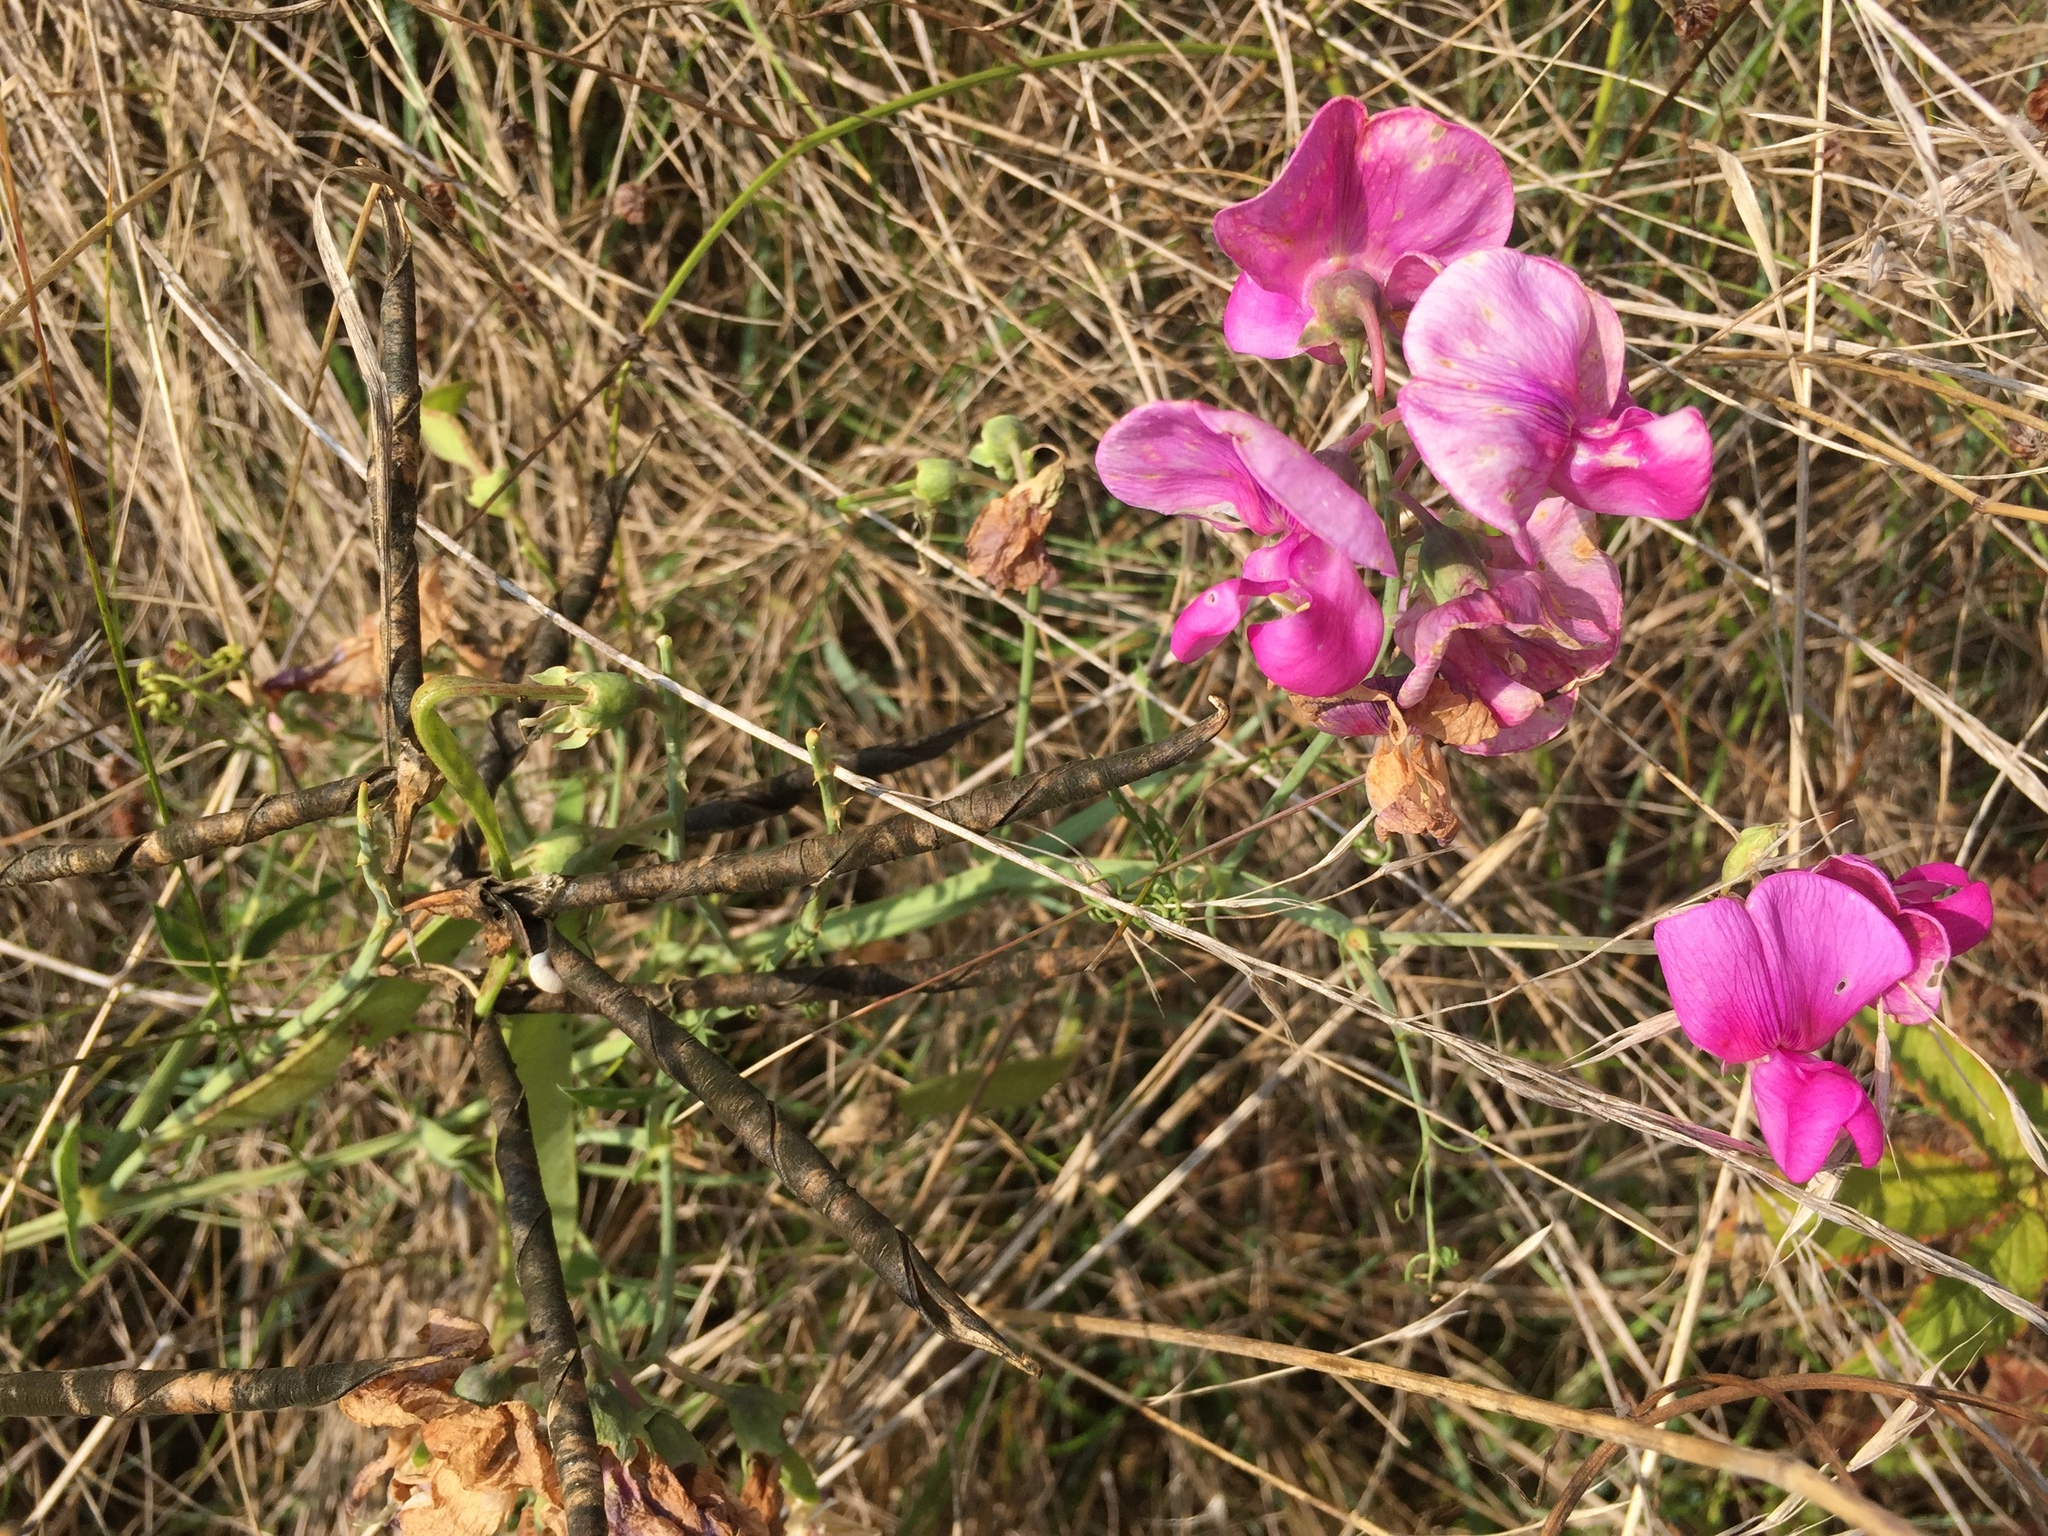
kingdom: Plantae
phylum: Tracheophyta
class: Magnoliopsida
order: Fabales
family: Fabaceae
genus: Lathyrus
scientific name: Lathyrus latifolius
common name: Perennial pea
